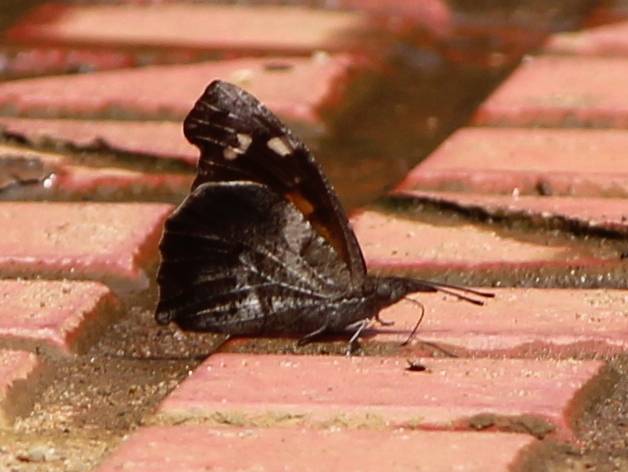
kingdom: Animalia
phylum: Arthropoda
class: Insecta
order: Lepidoptera
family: Nymphalidae
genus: Libythea
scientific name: Libythea laius
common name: African snout
